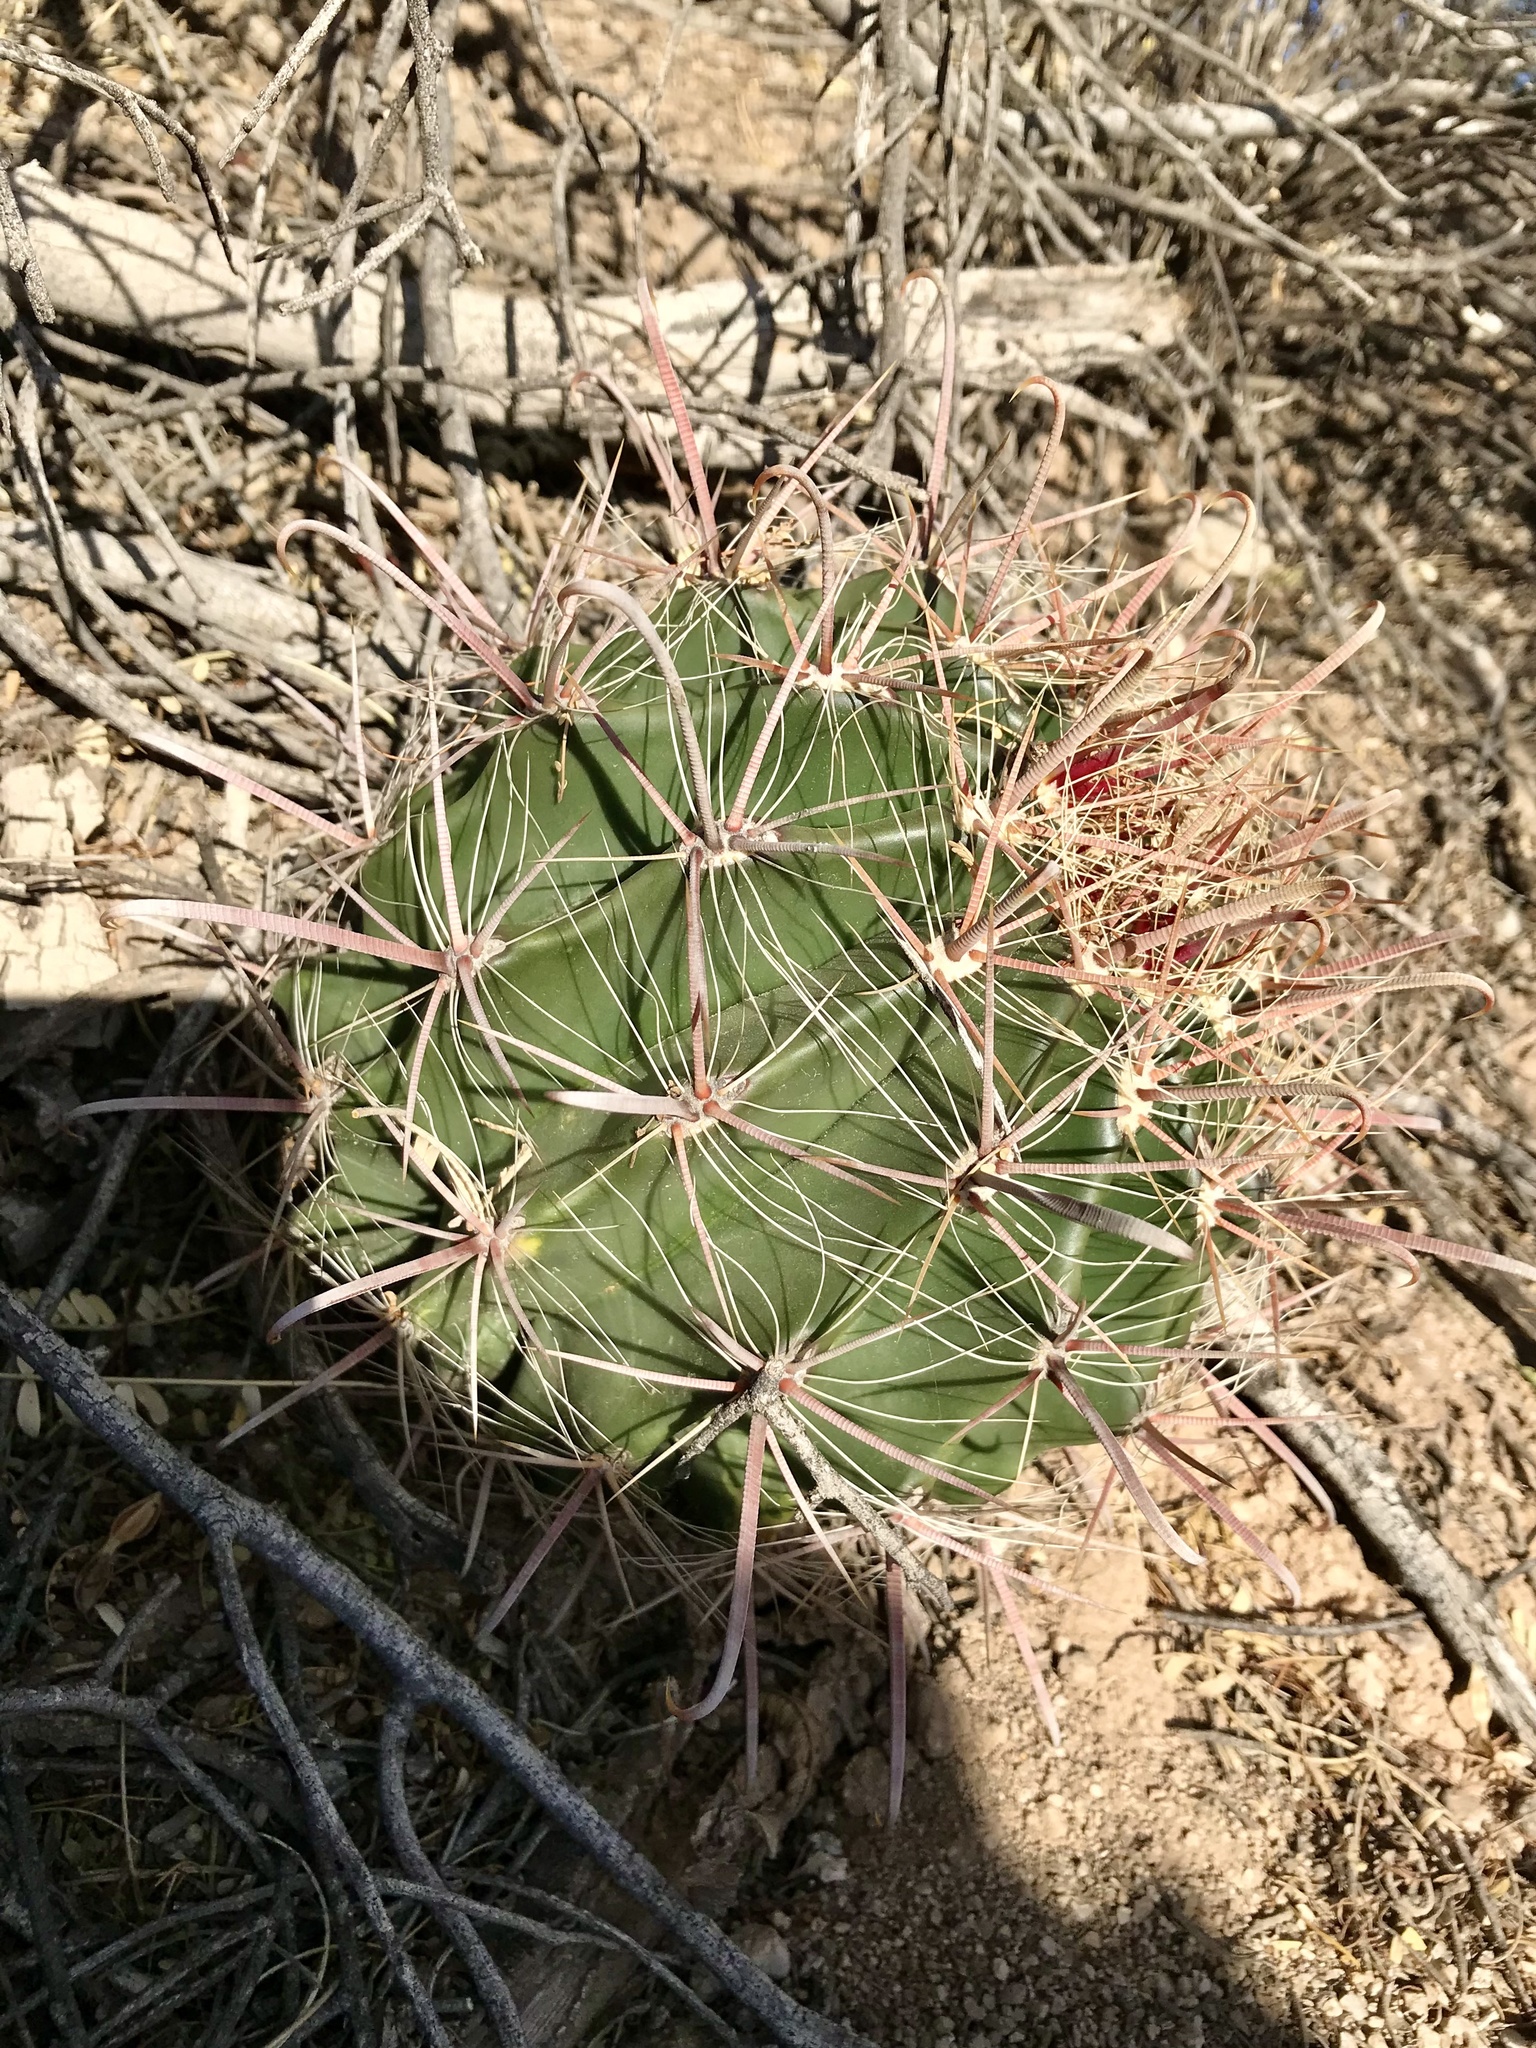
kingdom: Plantae
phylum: Tracheophyta
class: Magnoliopsida
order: Caryophyllales
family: Cactaceae
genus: Ferocactus
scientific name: Ferocactus wislizeni
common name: Candy barrel cactus
